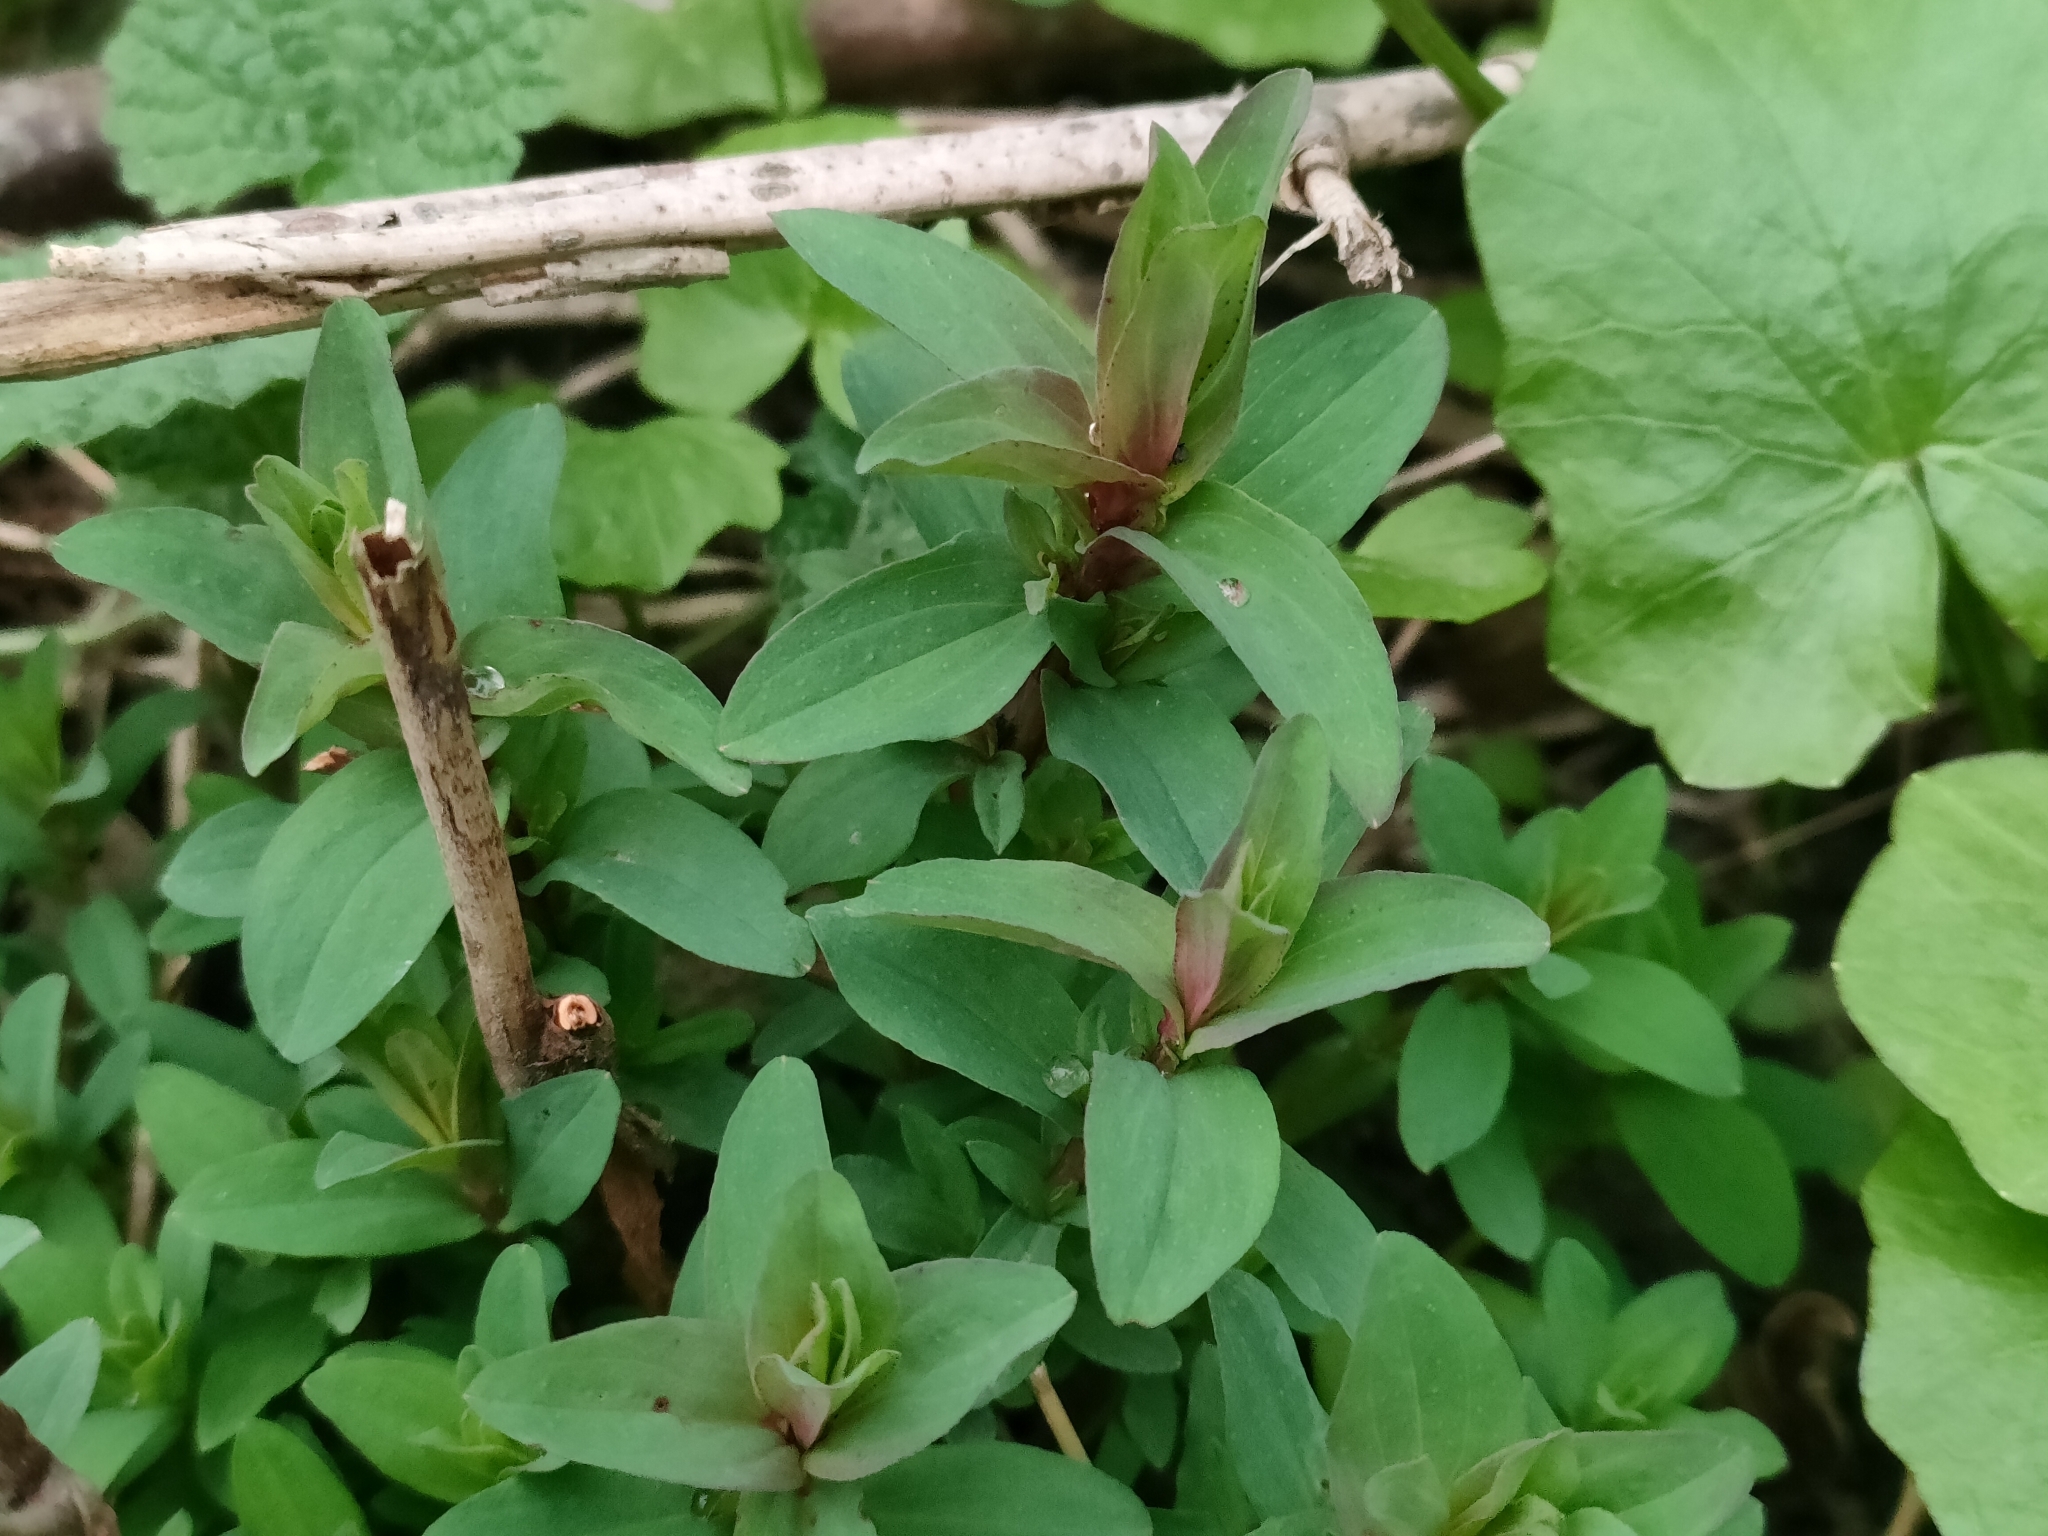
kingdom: Plantae
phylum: Tracheophyta
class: Magnoliopsida
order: Malpighiales
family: Hypericaceae
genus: Hypericum
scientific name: Hypericum perforatum
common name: Common st. johnswort
